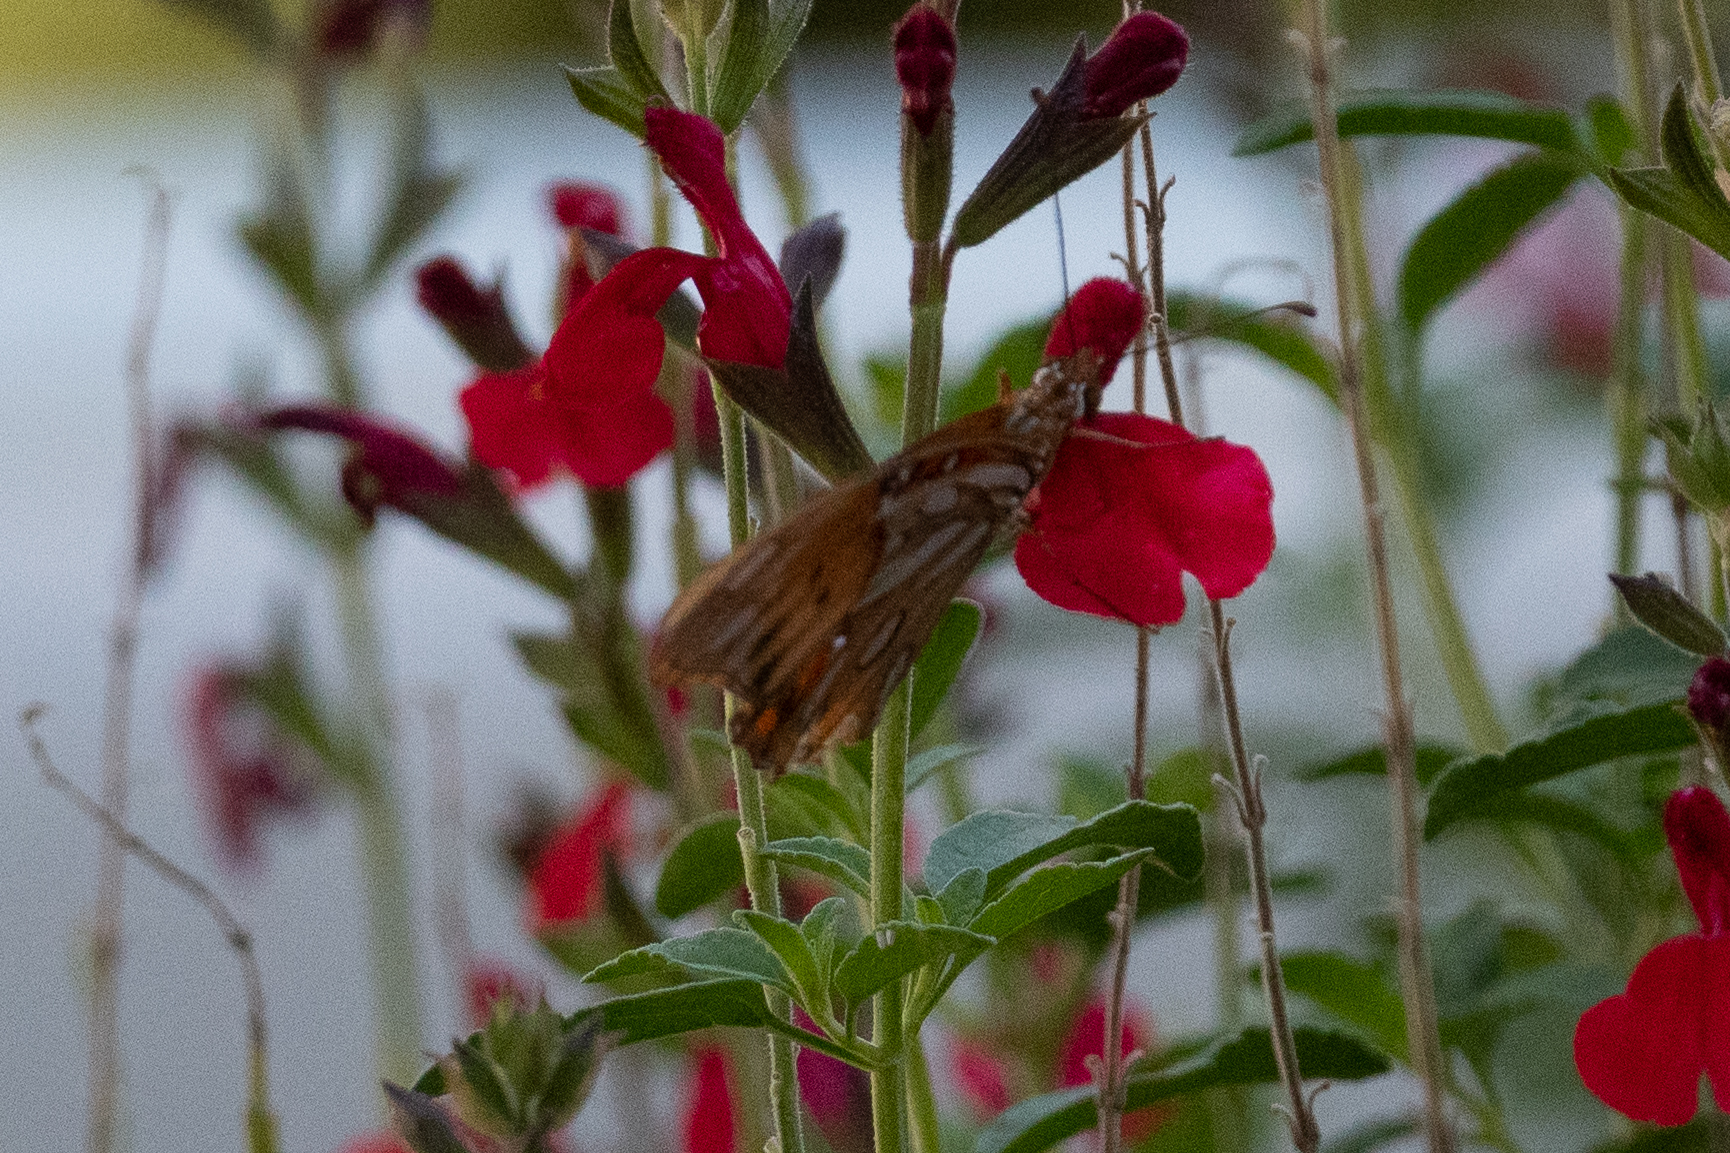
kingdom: Animalia
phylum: Arthropoda
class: Insecta
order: Lepidoptera
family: Nymphalidae
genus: Dione
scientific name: Dione vanillae
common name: Gulf fritillary
